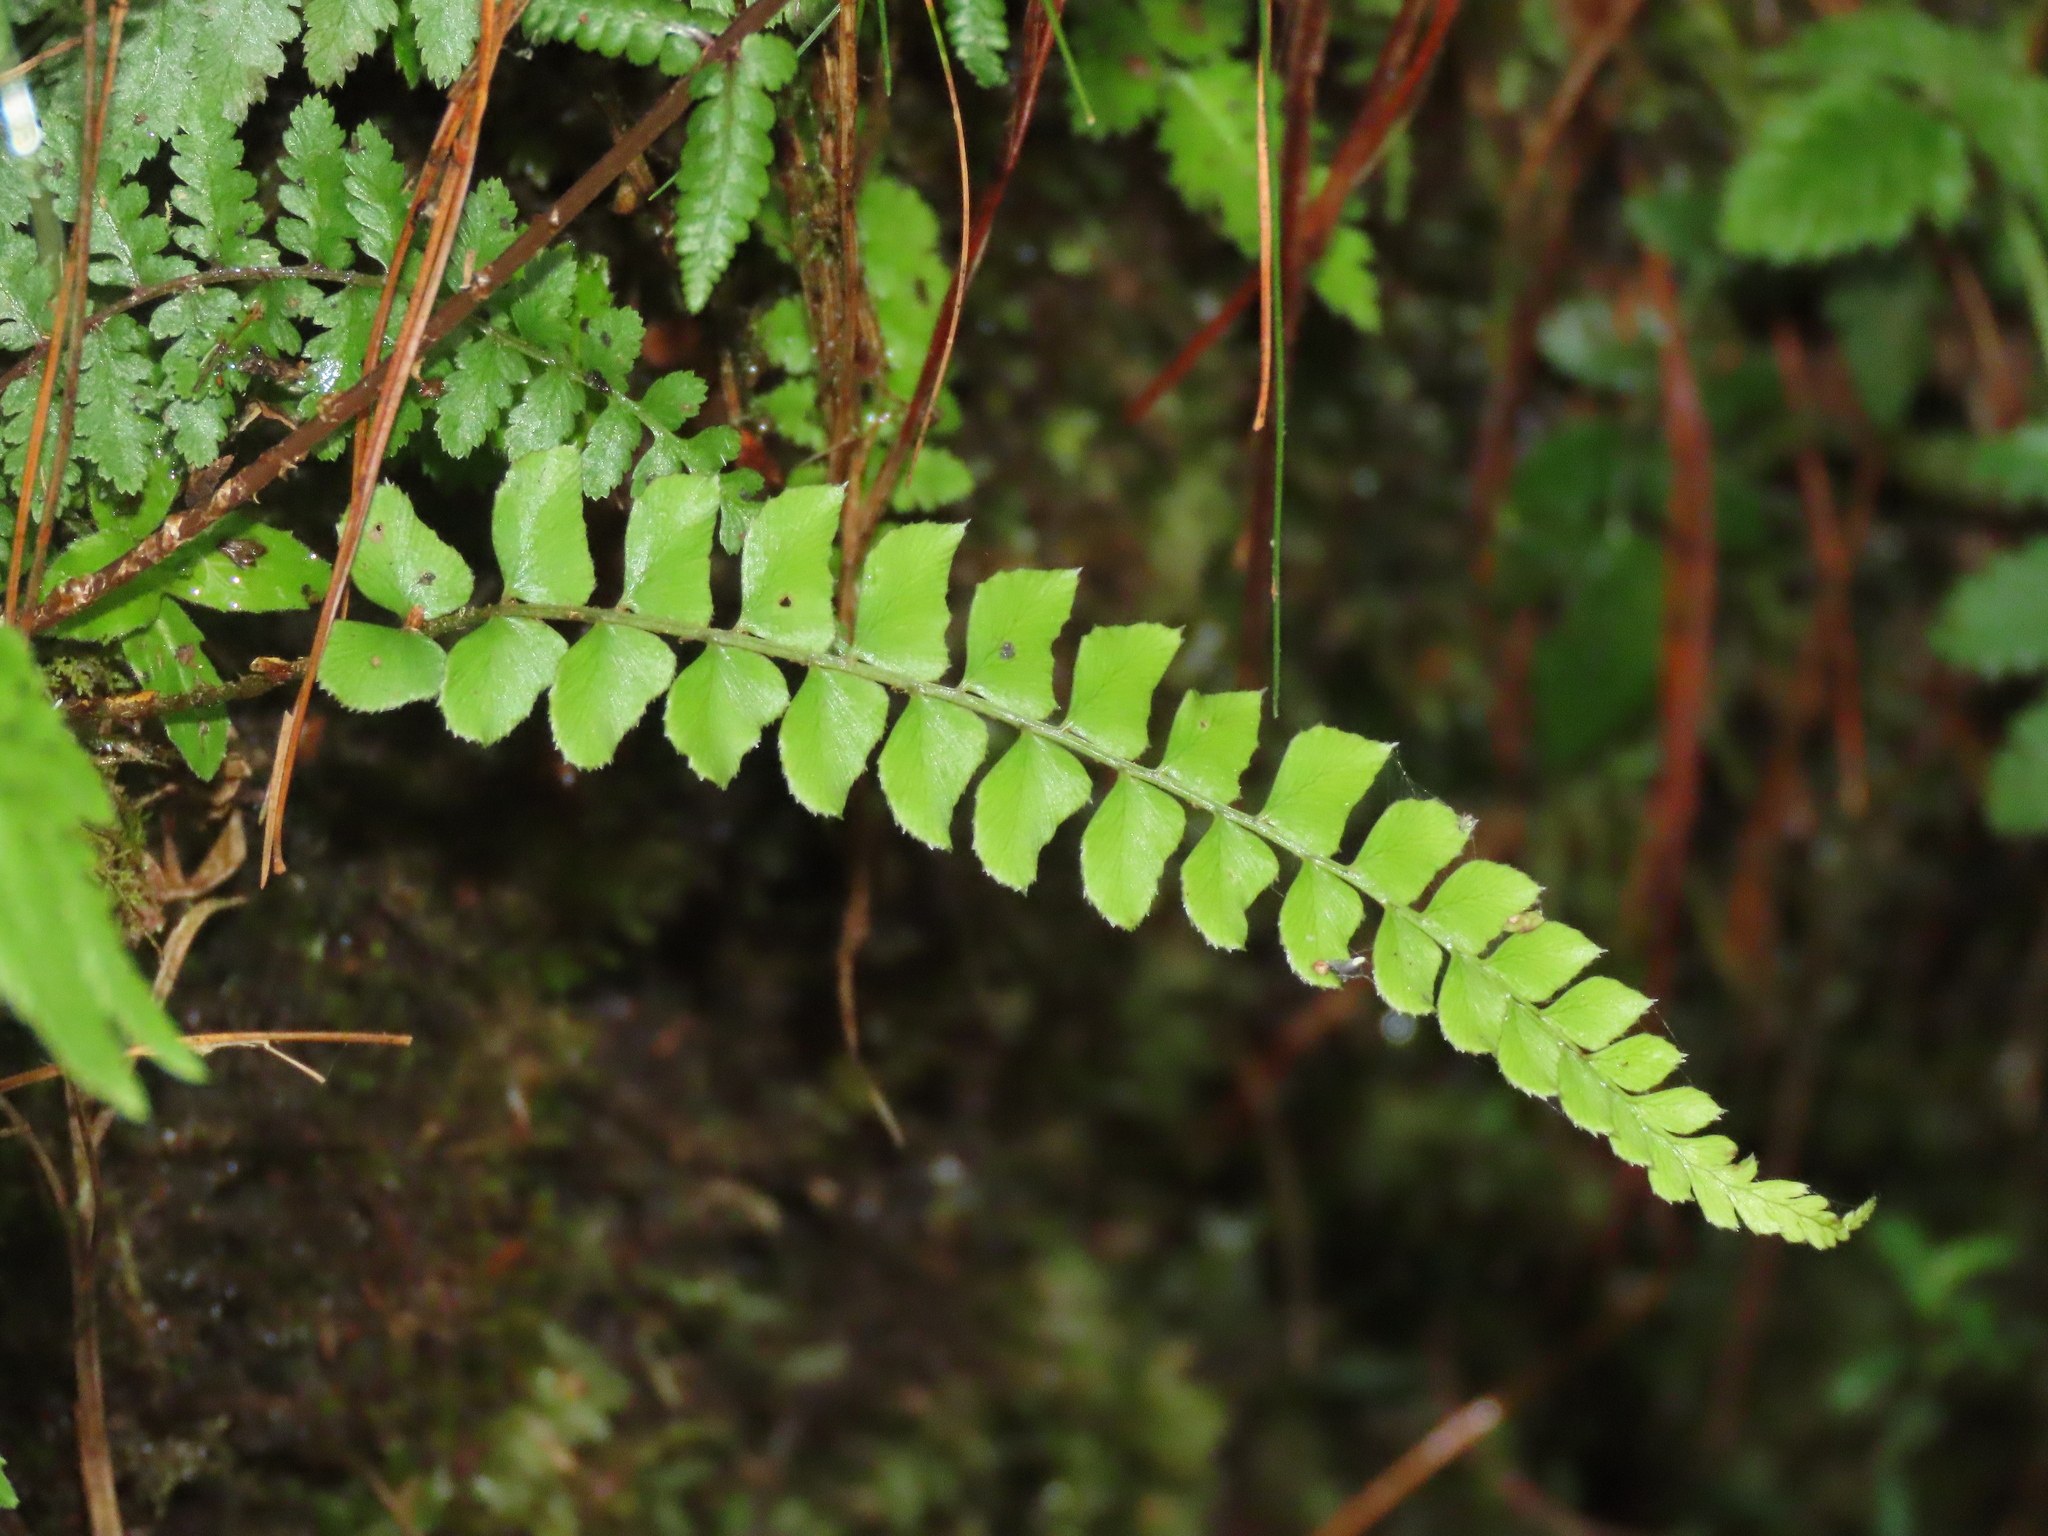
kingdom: Plantae
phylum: Tracheophyta
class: Polypodiopsida
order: Polypodiales
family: Dryopteridaceae
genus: Polystichum
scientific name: Polystichum nepalense
